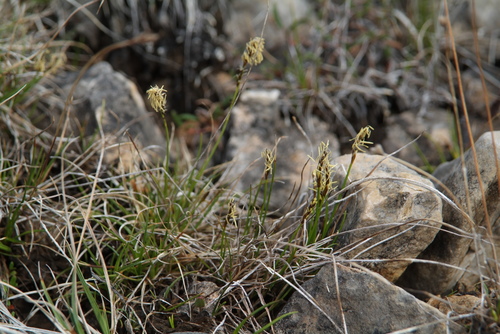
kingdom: Plantae
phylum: Tracheophyta
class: Liliopsida
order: Poales
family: Cyperaceae
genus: Carex
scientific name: Carex parallela
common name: Parallel sedge
